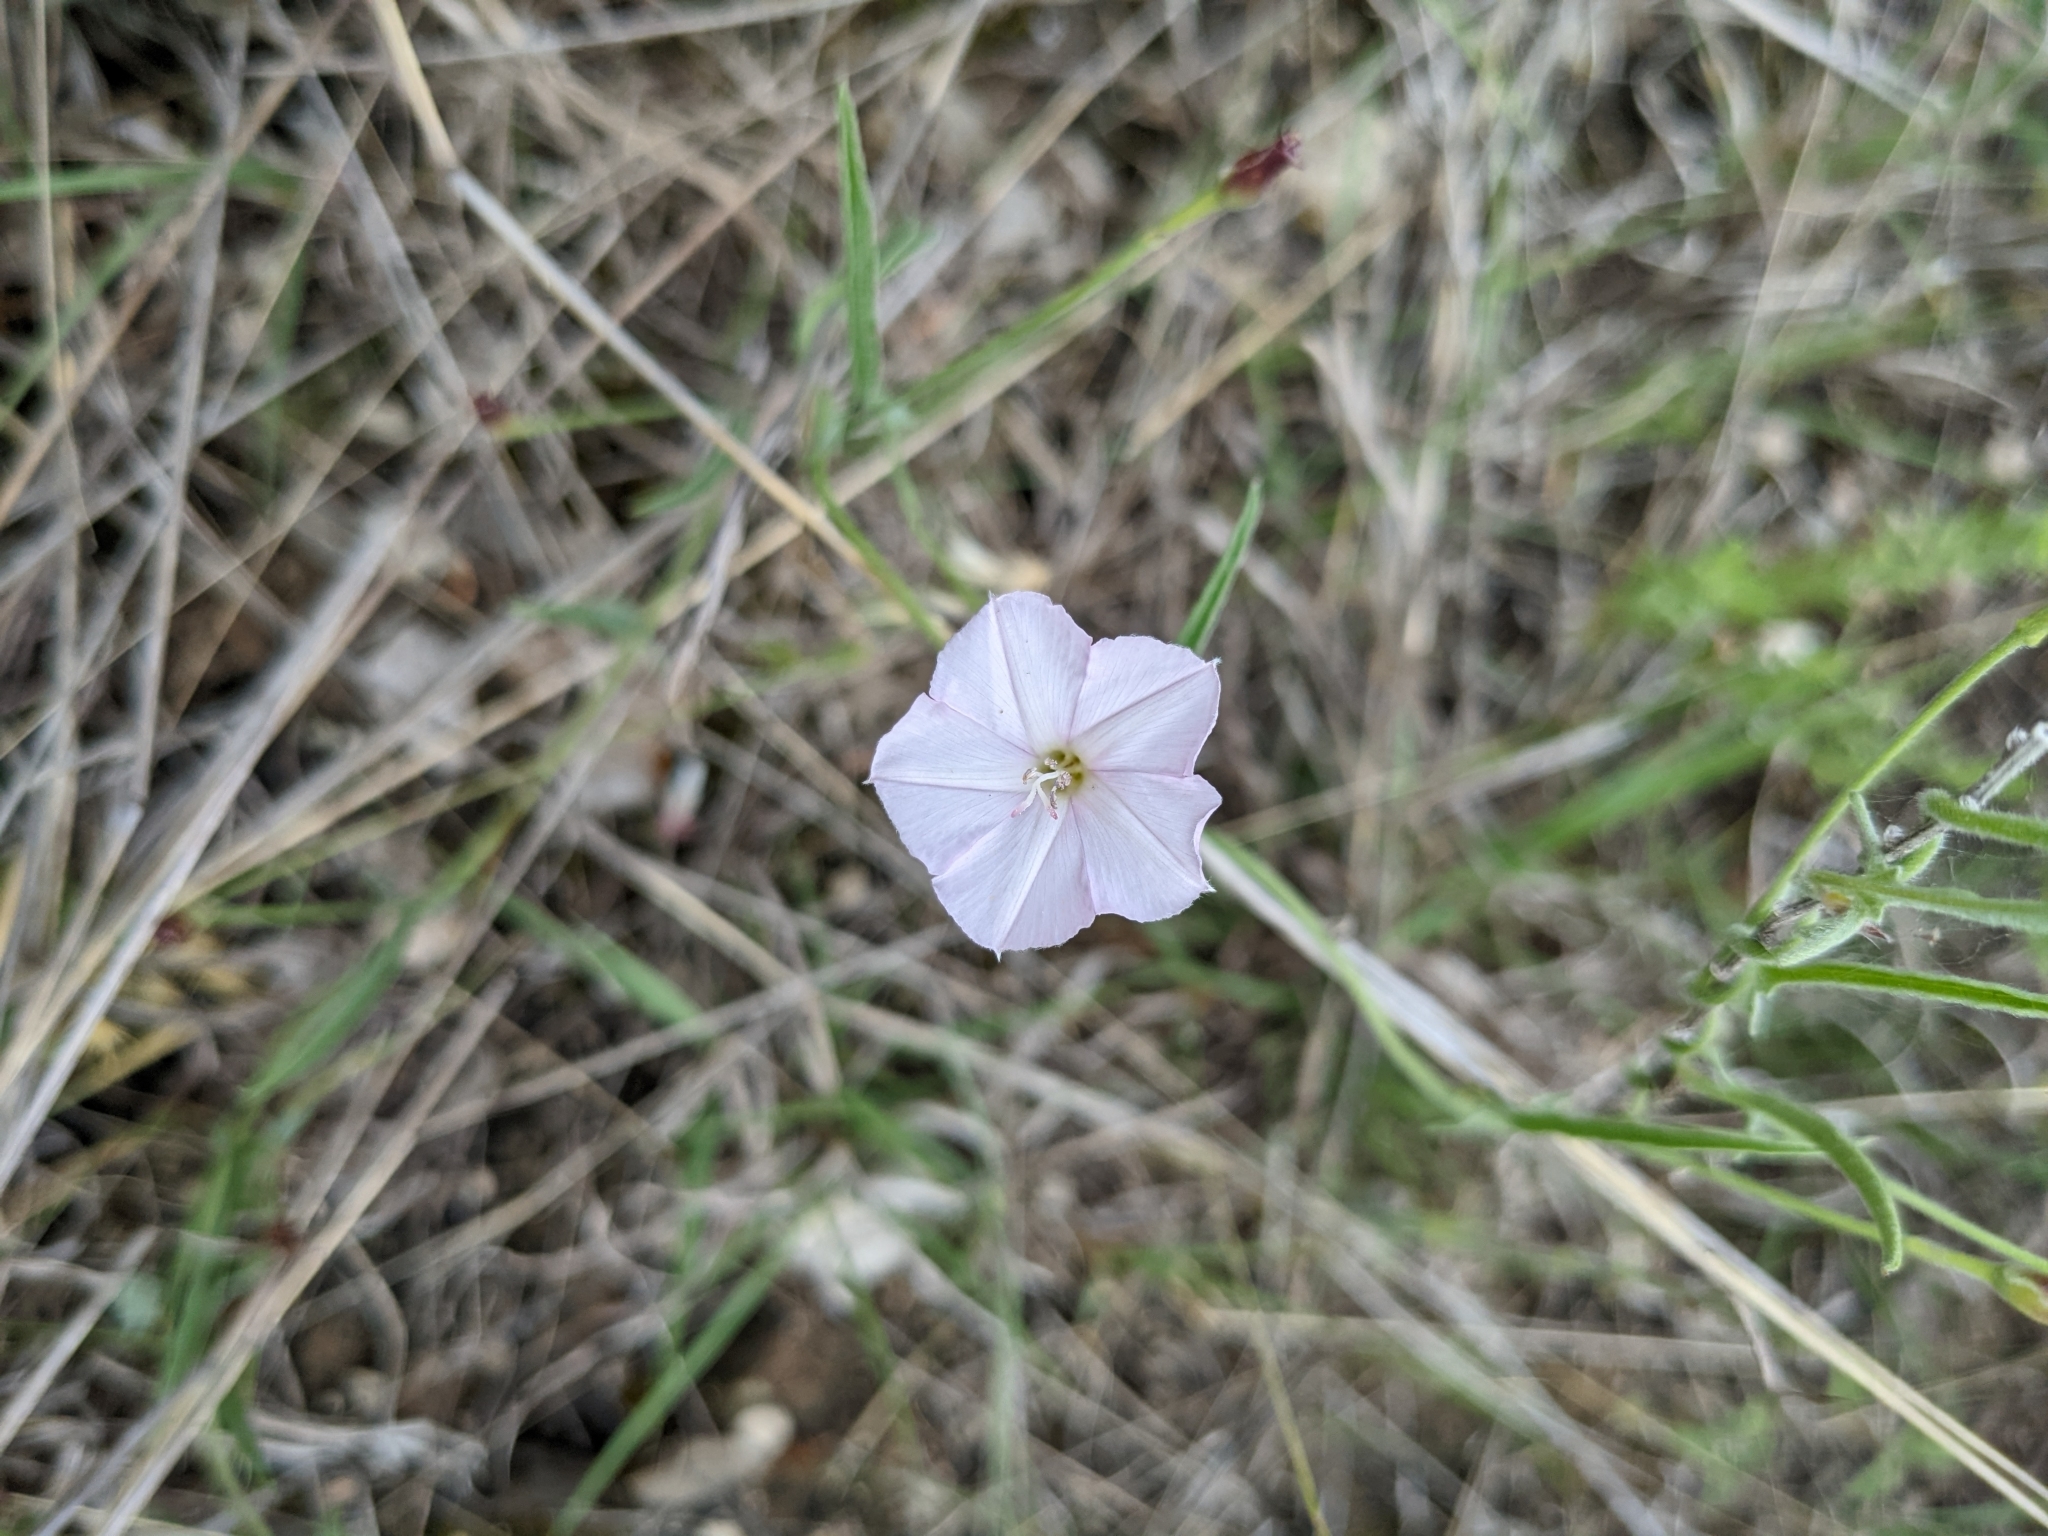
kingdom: Plantae
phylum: Tracheophyta
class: Magnoliopsida
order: Solanales
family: Convolvulaceae
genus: Convolvulus
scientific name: Convolvulus equitans
